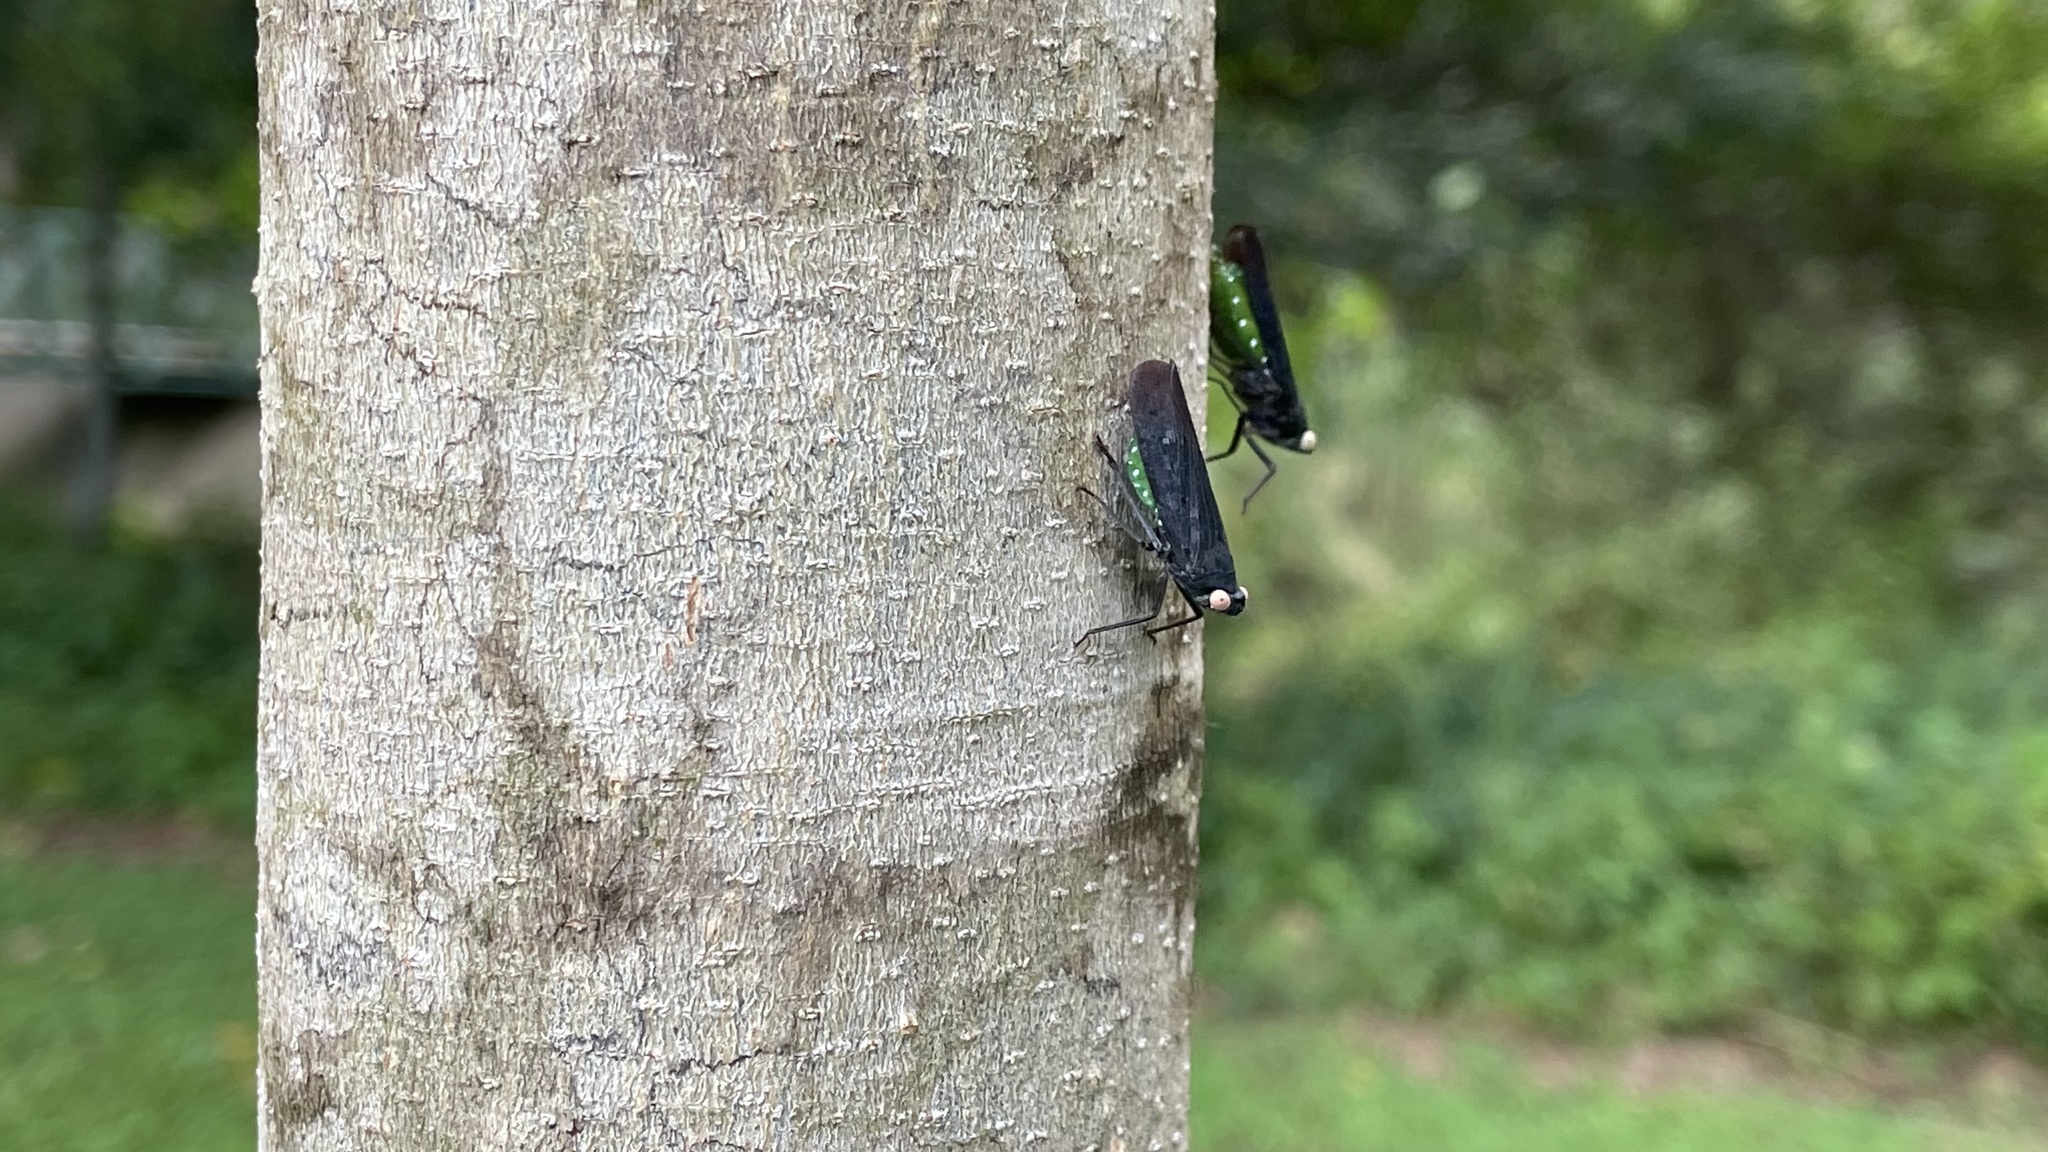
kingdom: Animalia
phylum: Arthropoda
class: Insecta
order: Hemiptera
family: Fulgoridae
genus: Desudaba
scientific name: Desudaba psittacus
